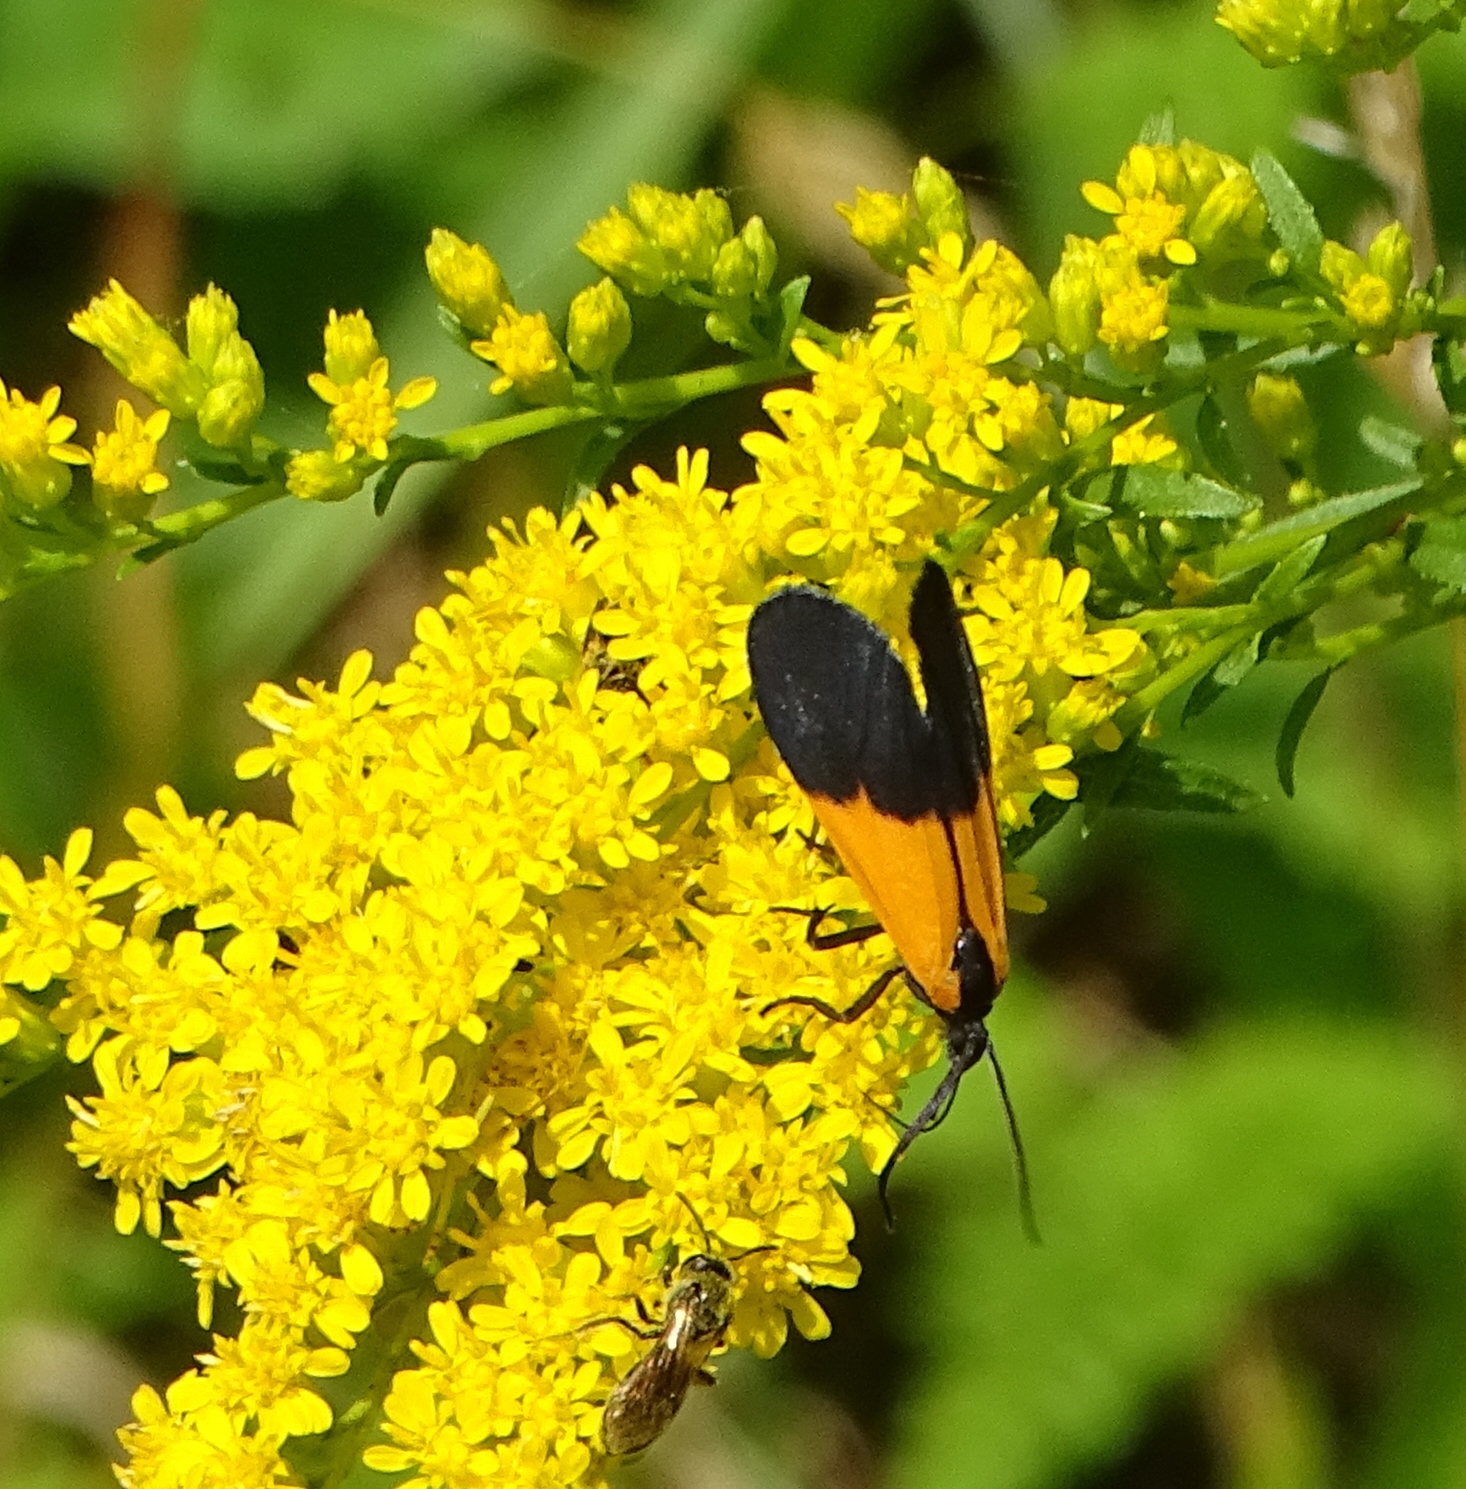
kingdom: Animalia
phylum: Arthropoda
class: Insecta
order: Lepidoptera
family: Erebidae
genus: Lycomorpha
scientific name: Lycomorpha pholus
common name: Black-and-yellow lichen moth
